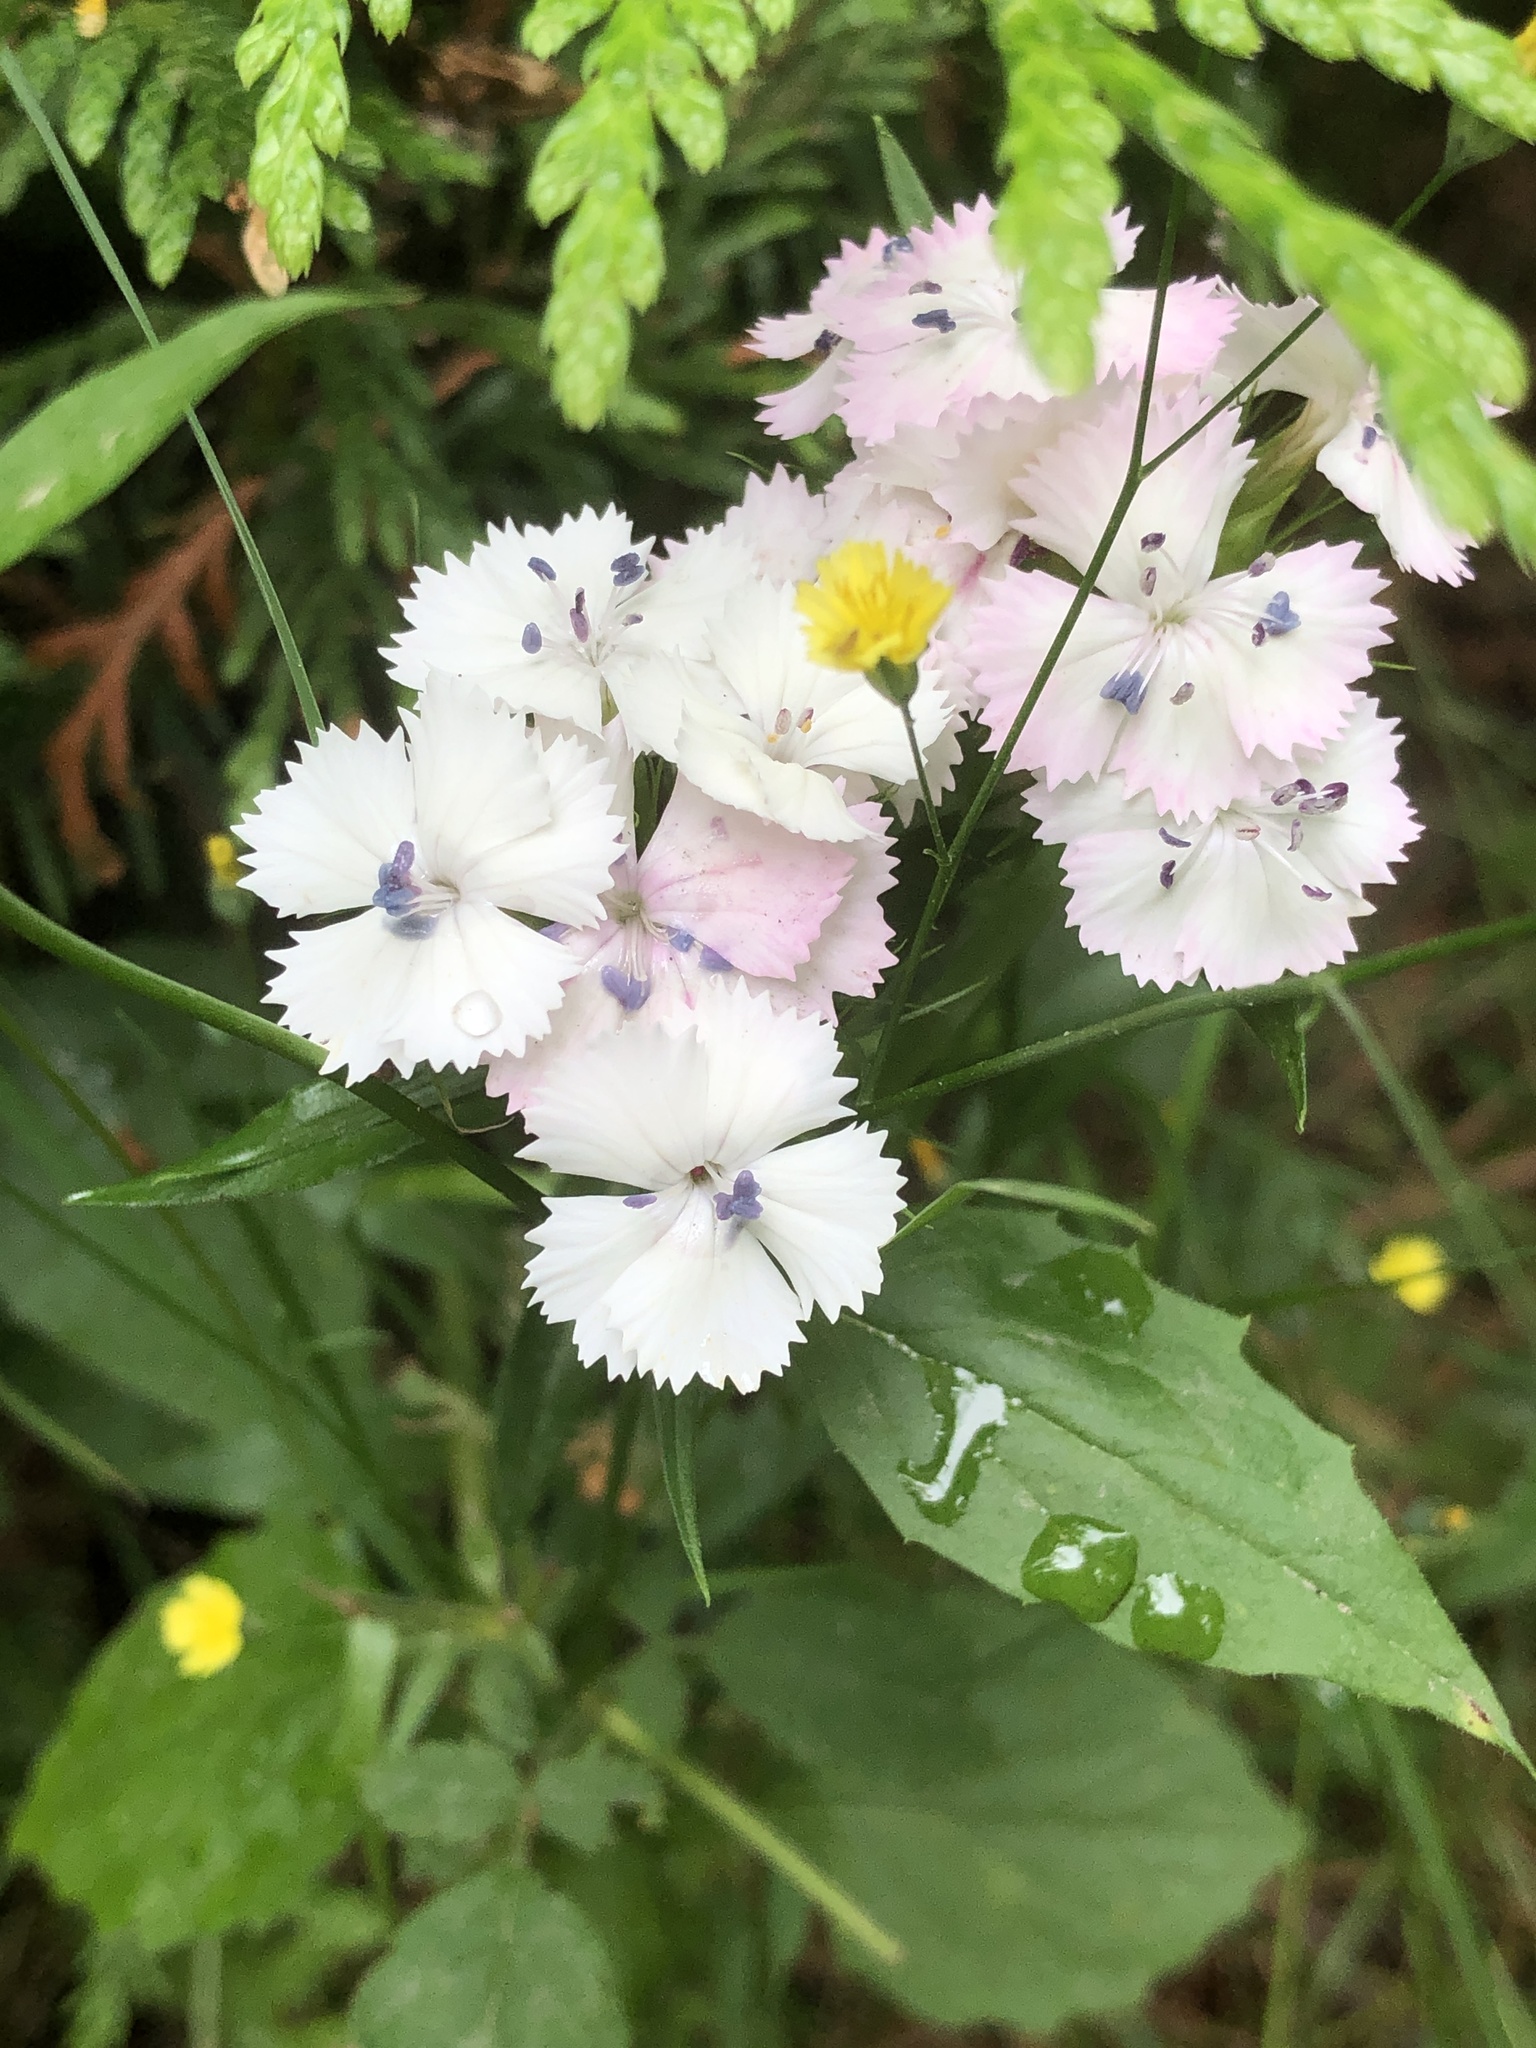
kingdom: Plantae
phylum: Tracheophyta
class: Magnoliopsida
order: Caryophyllales
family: Caryophyllaceae
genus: Dianthus
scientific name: Dianthus barbatus
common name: Sweet-william
